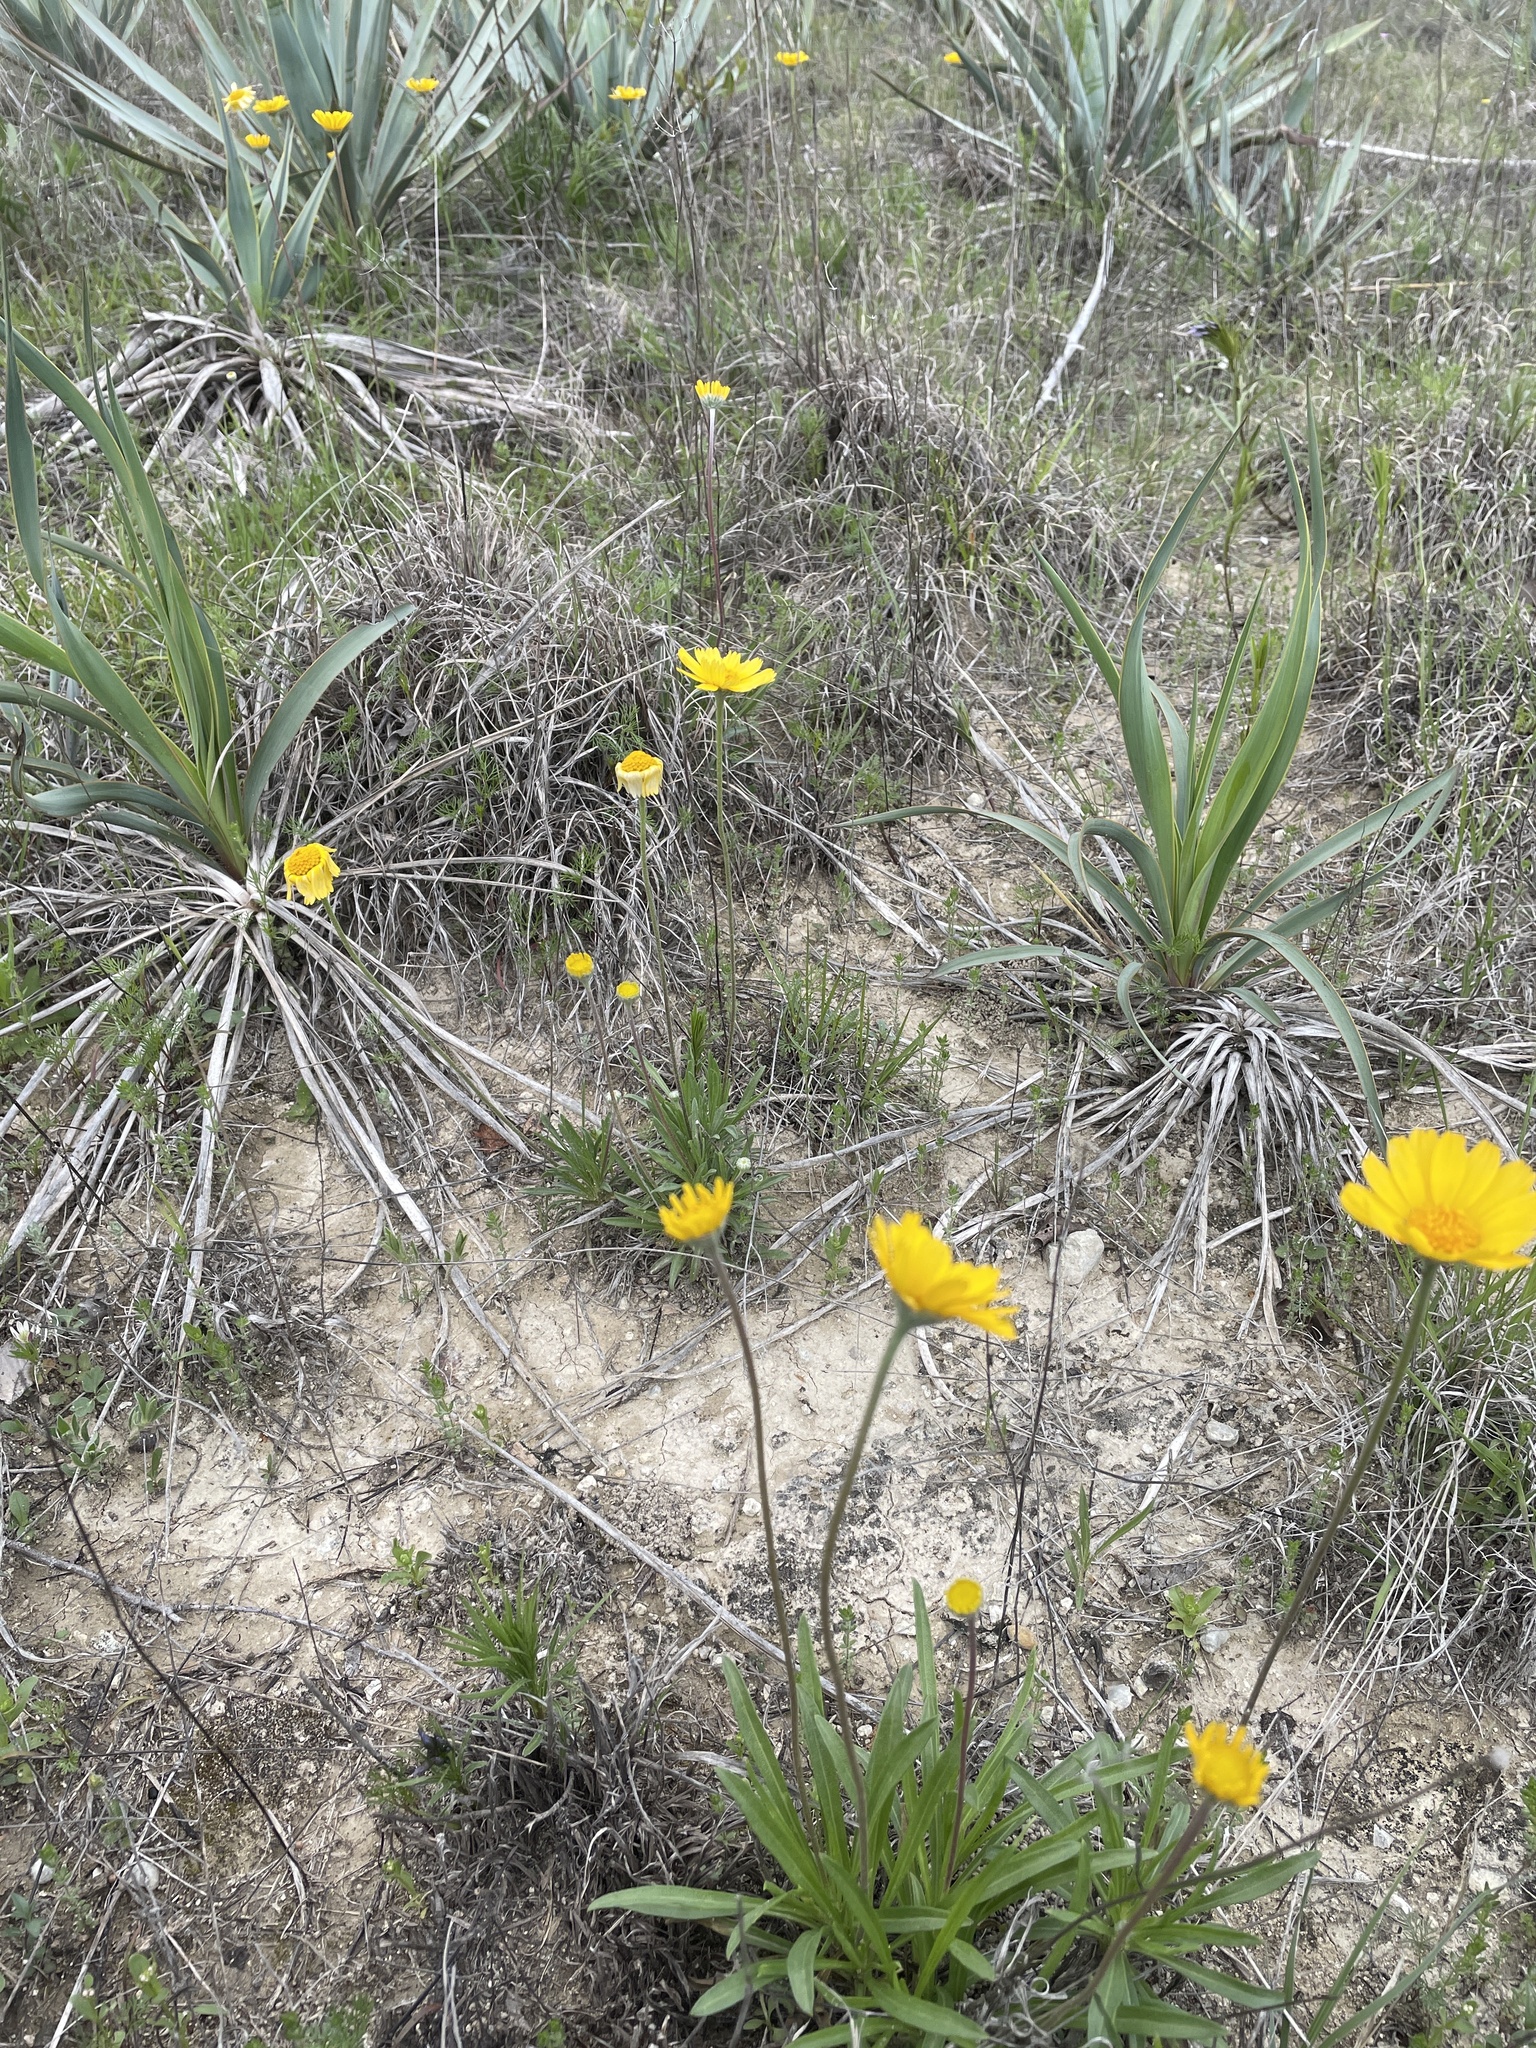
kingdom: Plantae
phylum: Tracheophyta
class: Magnoliopsida
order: Asterales
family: Asteraceae
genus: Tetraneuris
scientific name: Tetraneuris scaposa
